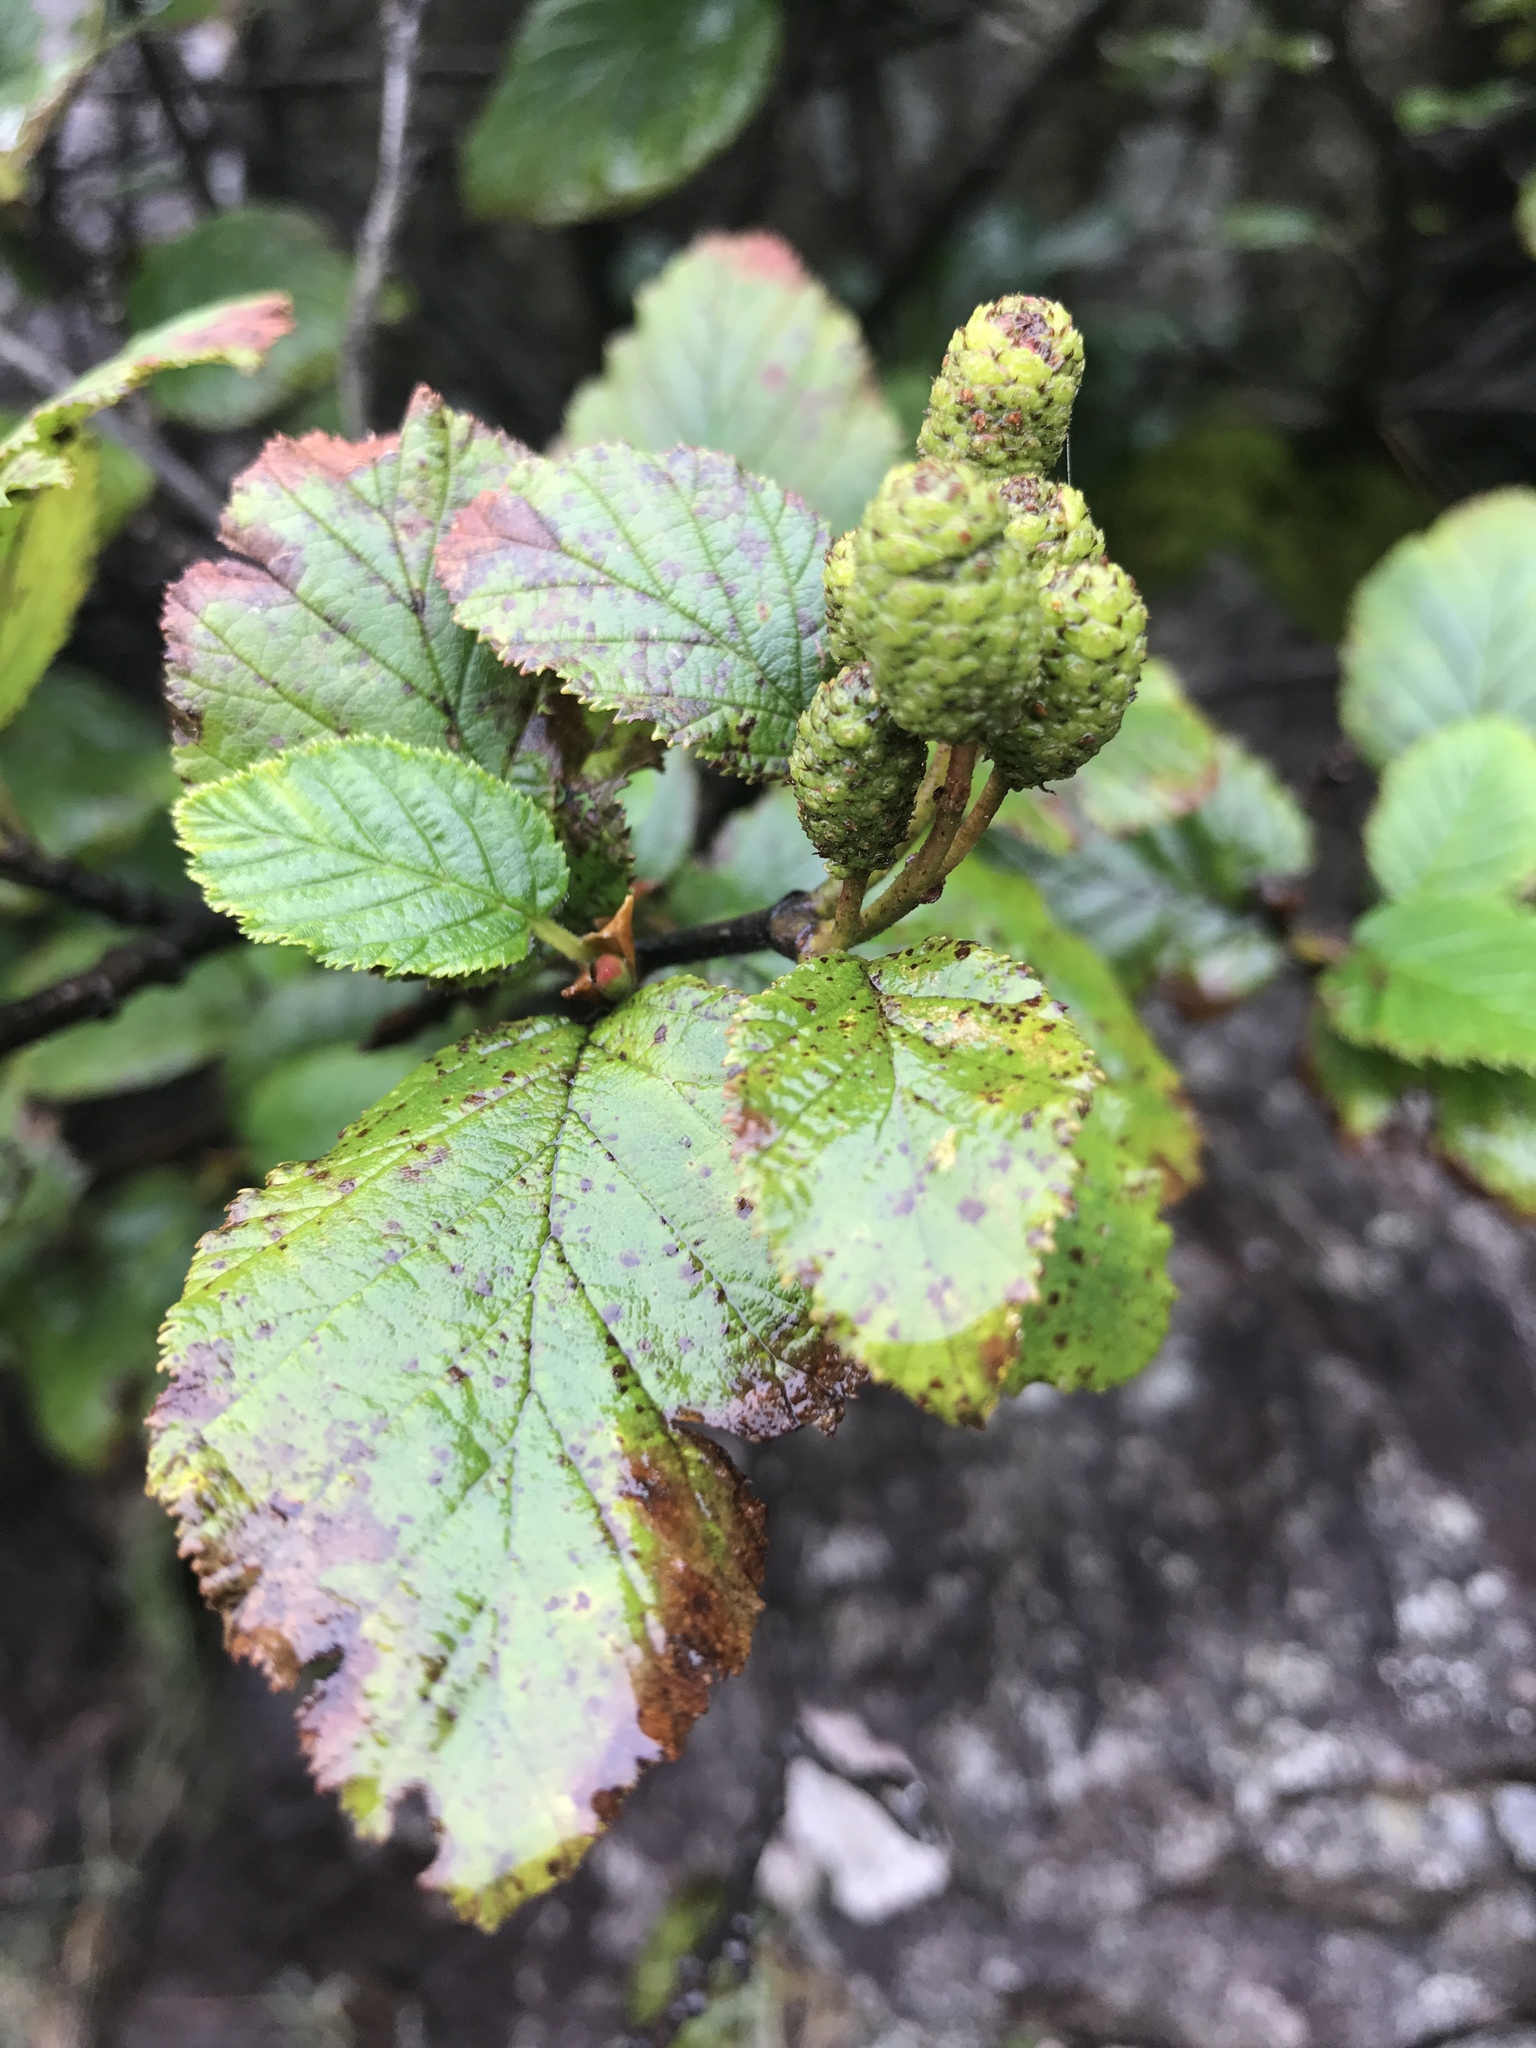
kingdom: Plantae
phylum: Tracheophyta
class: Magnoliopsida
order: Fagales
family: Betulaceae
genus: Alnus
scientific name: Alnus alnobetula
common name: Green alder
